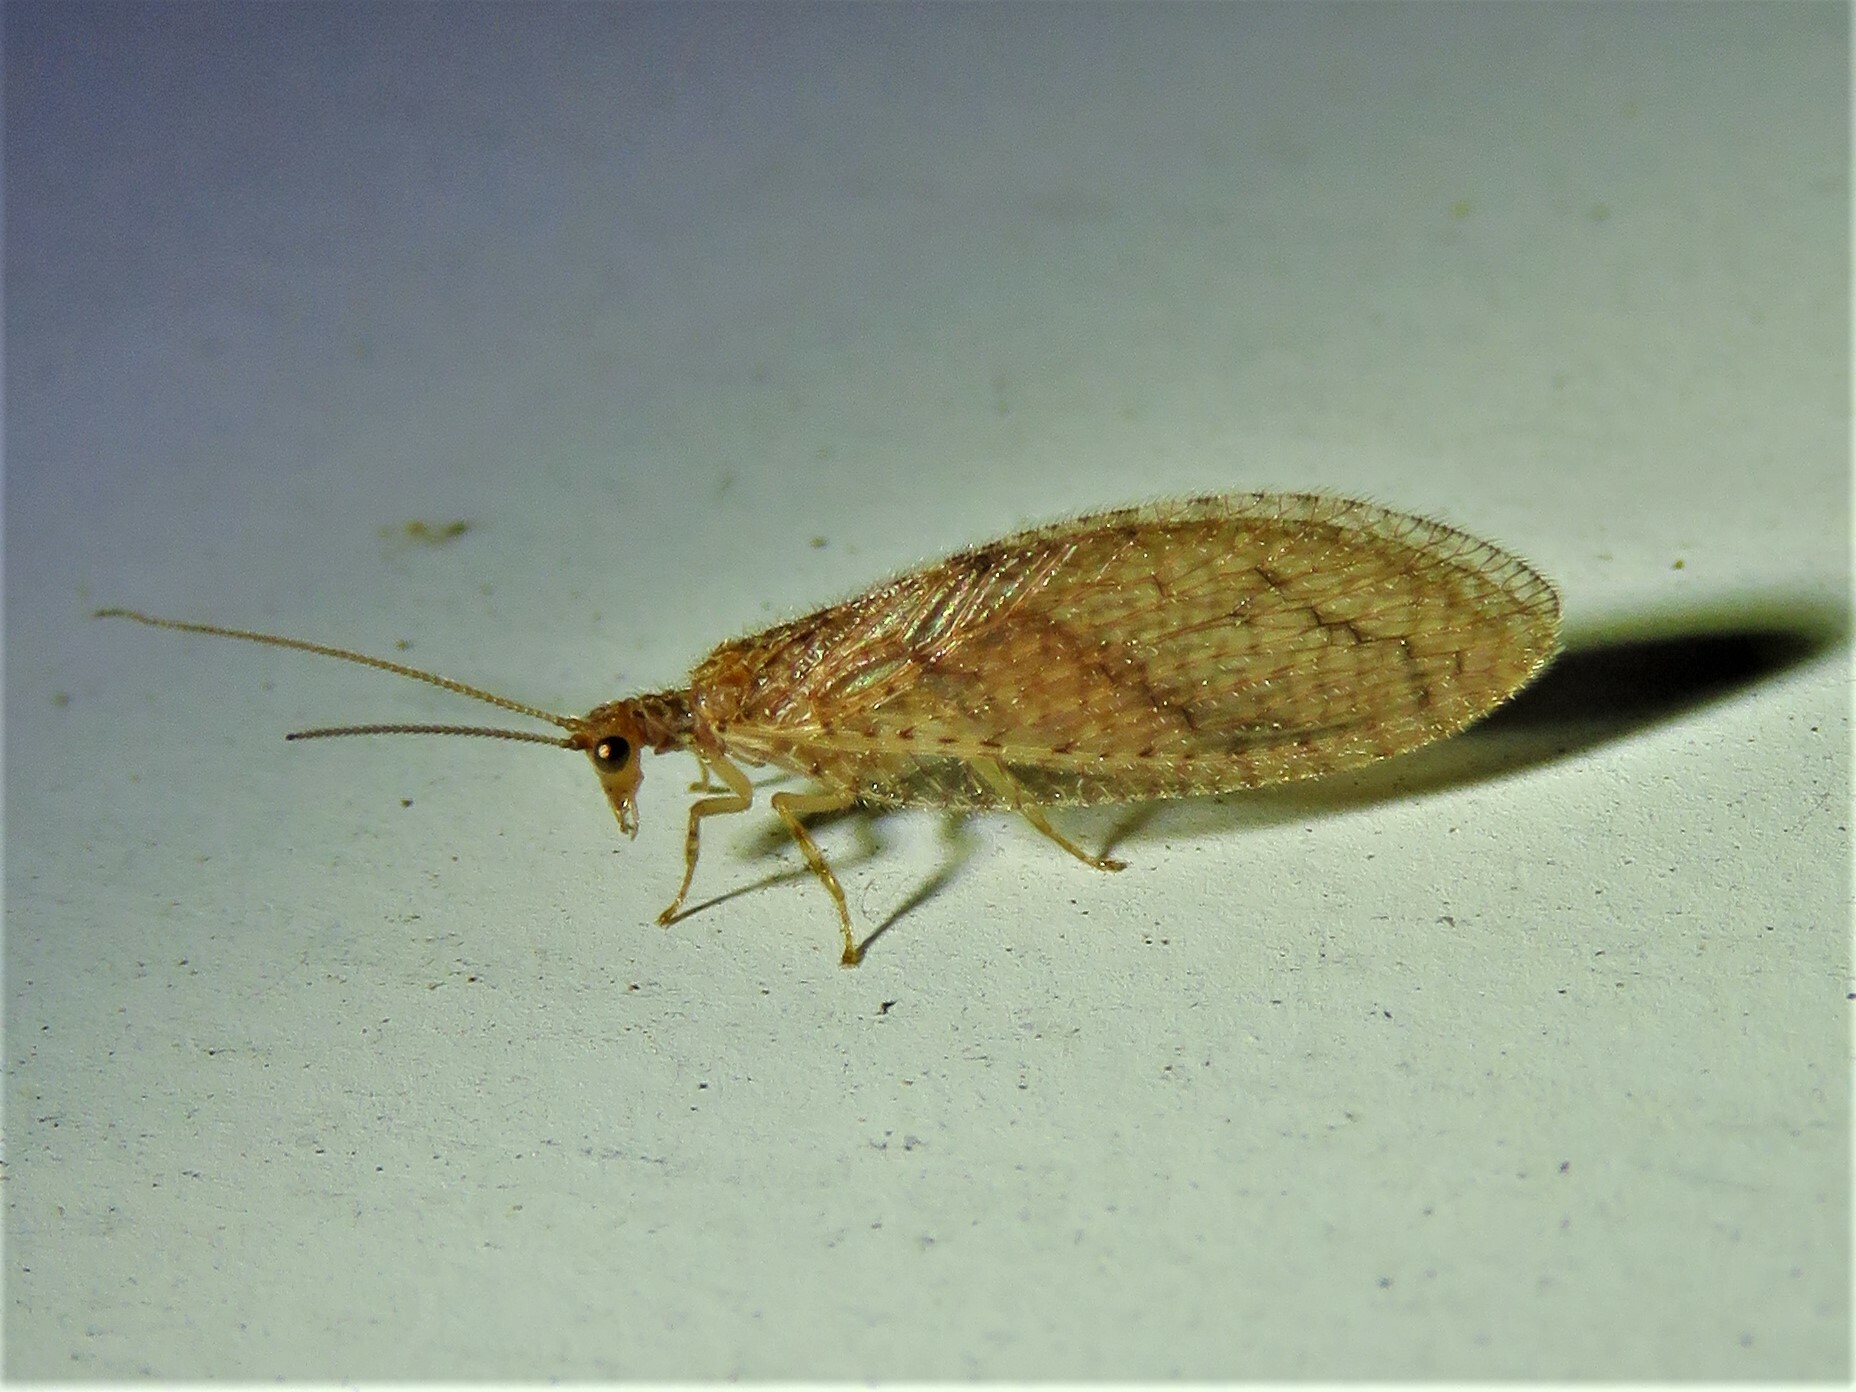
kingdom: Animalia
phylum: Arthropoda
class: Insecta
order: Neuroptera
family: Hemerobiidae
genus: Micromus
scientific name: Micromus posticus
